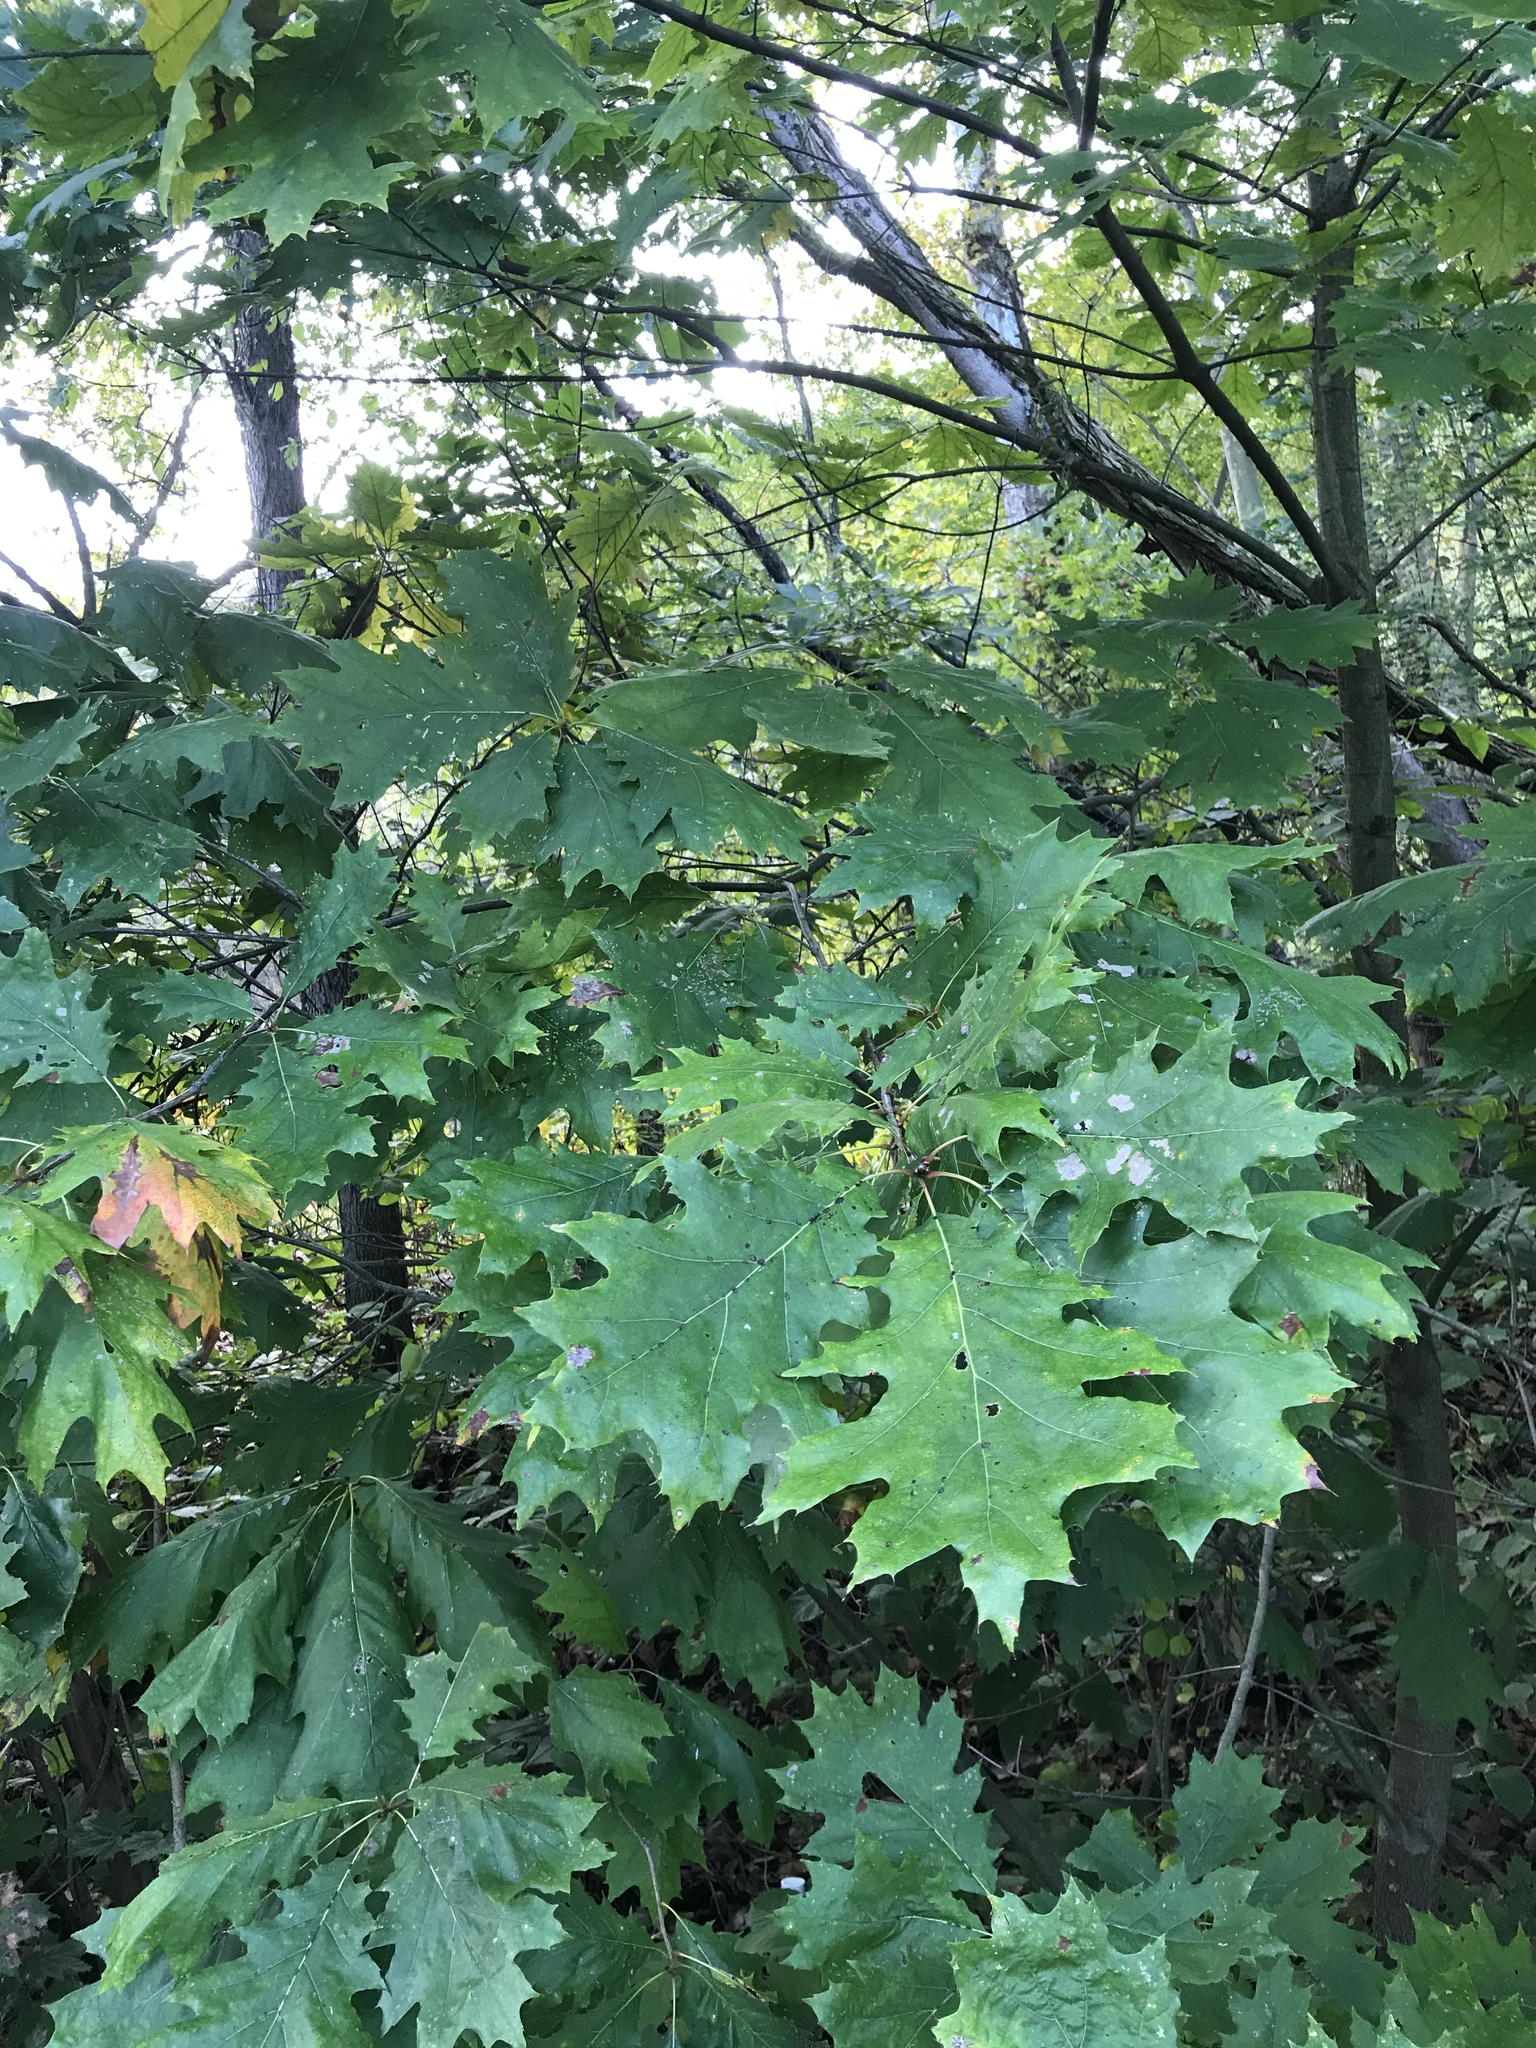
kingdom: Plantae
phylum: Tracheophyta
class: Magnoliopsida
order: Fagales
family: Fagaceae
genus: Quercus
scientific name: Quercus rubra
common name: Red oak
